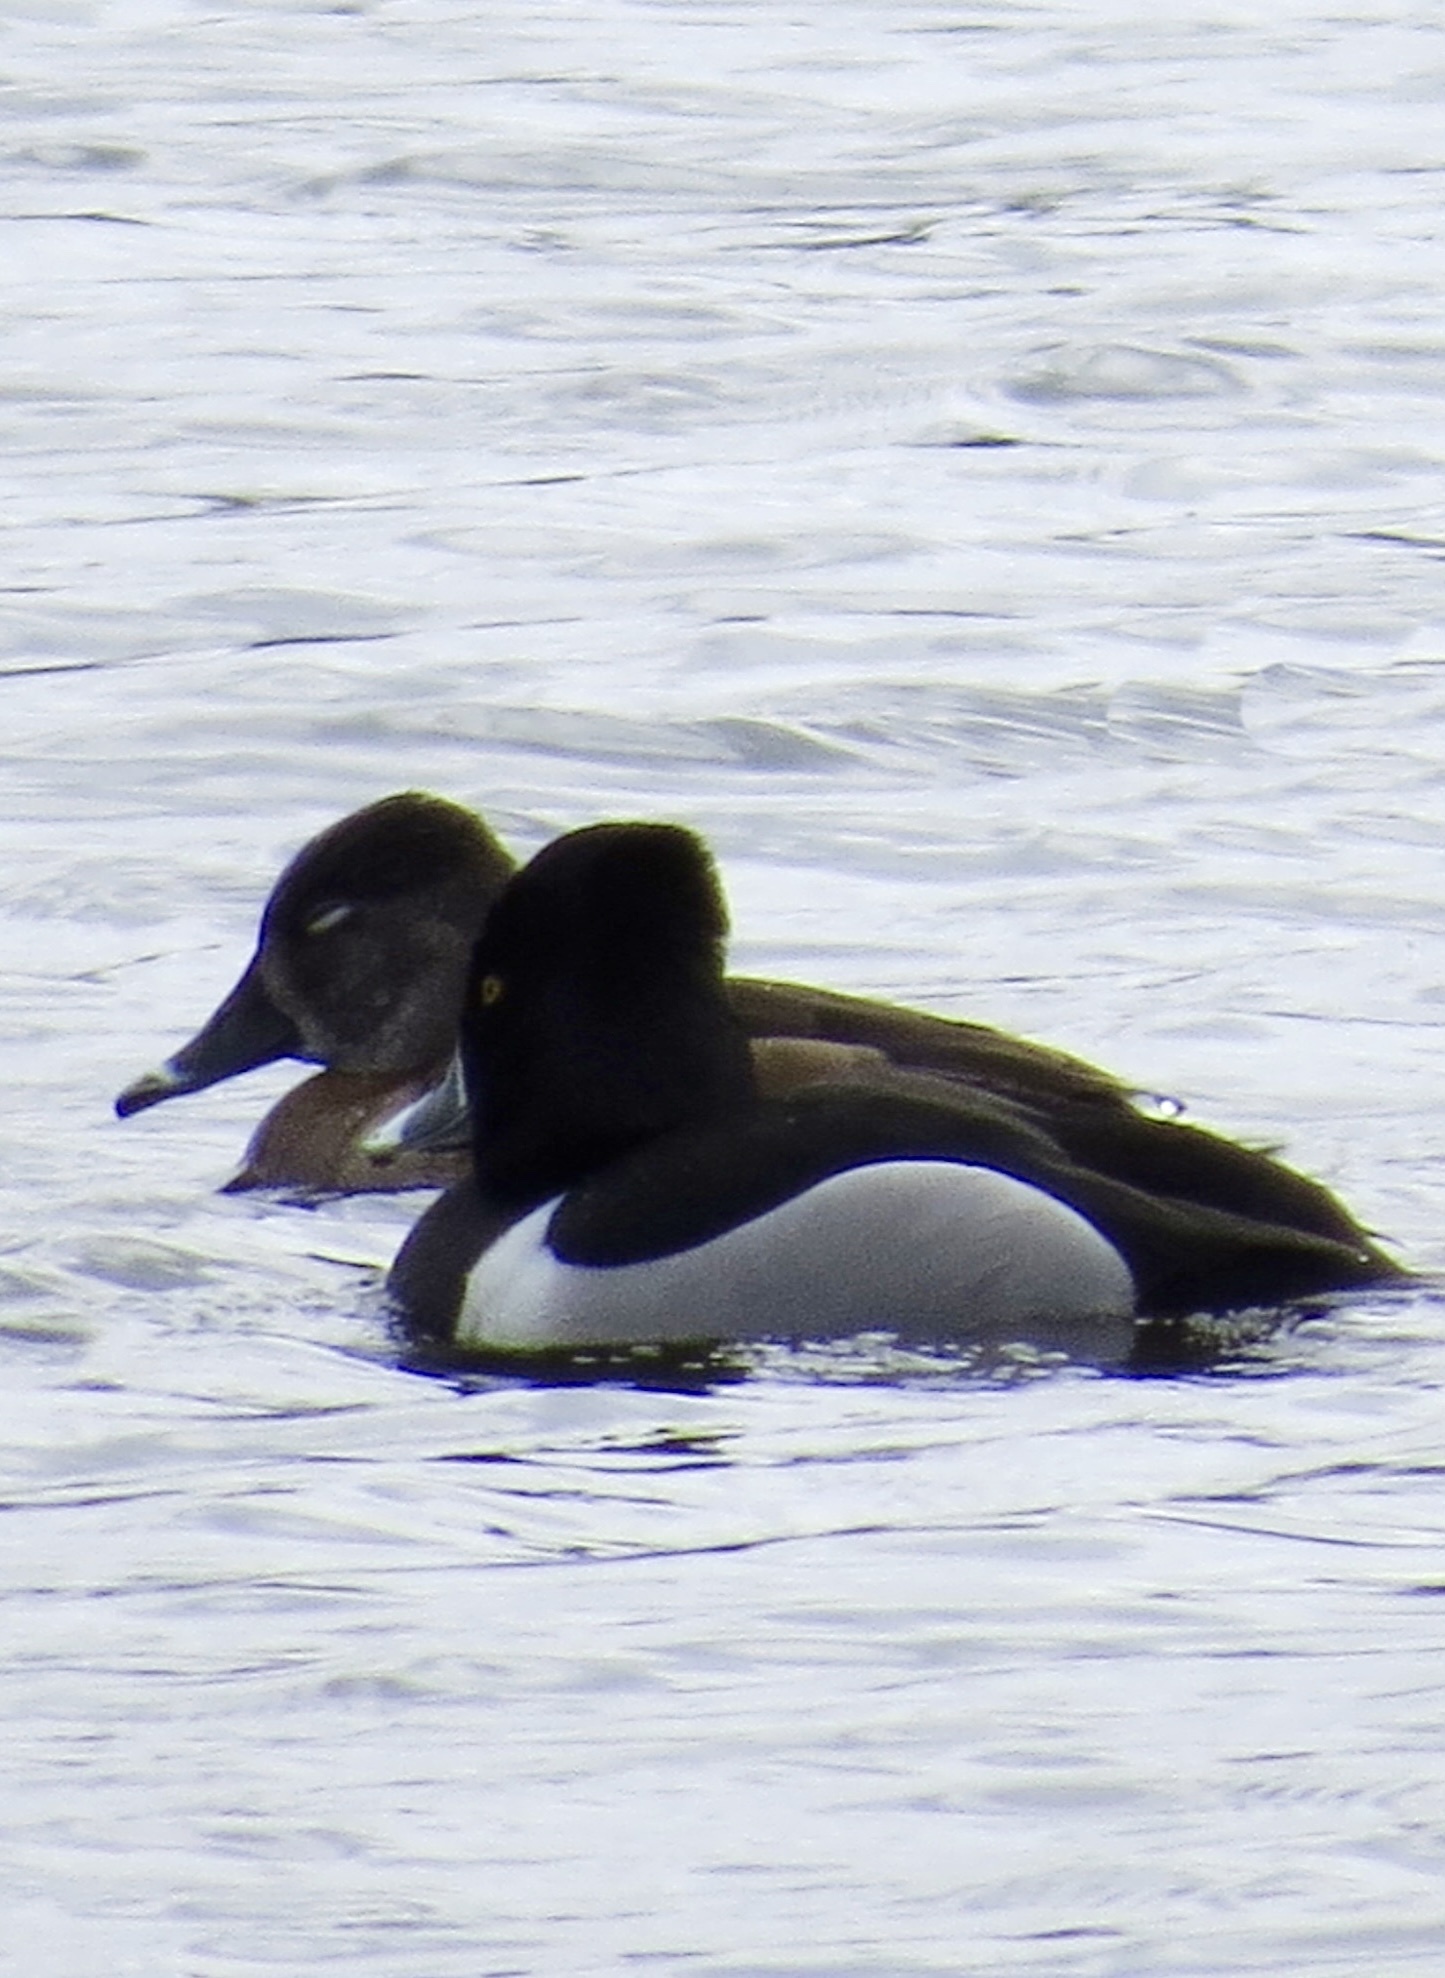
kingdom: Animalia
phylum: Chordata
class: Aves
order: Anseriformes
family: Anatidae
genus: Aythya
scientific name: Aythya collaris
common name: Ring-necked duck
